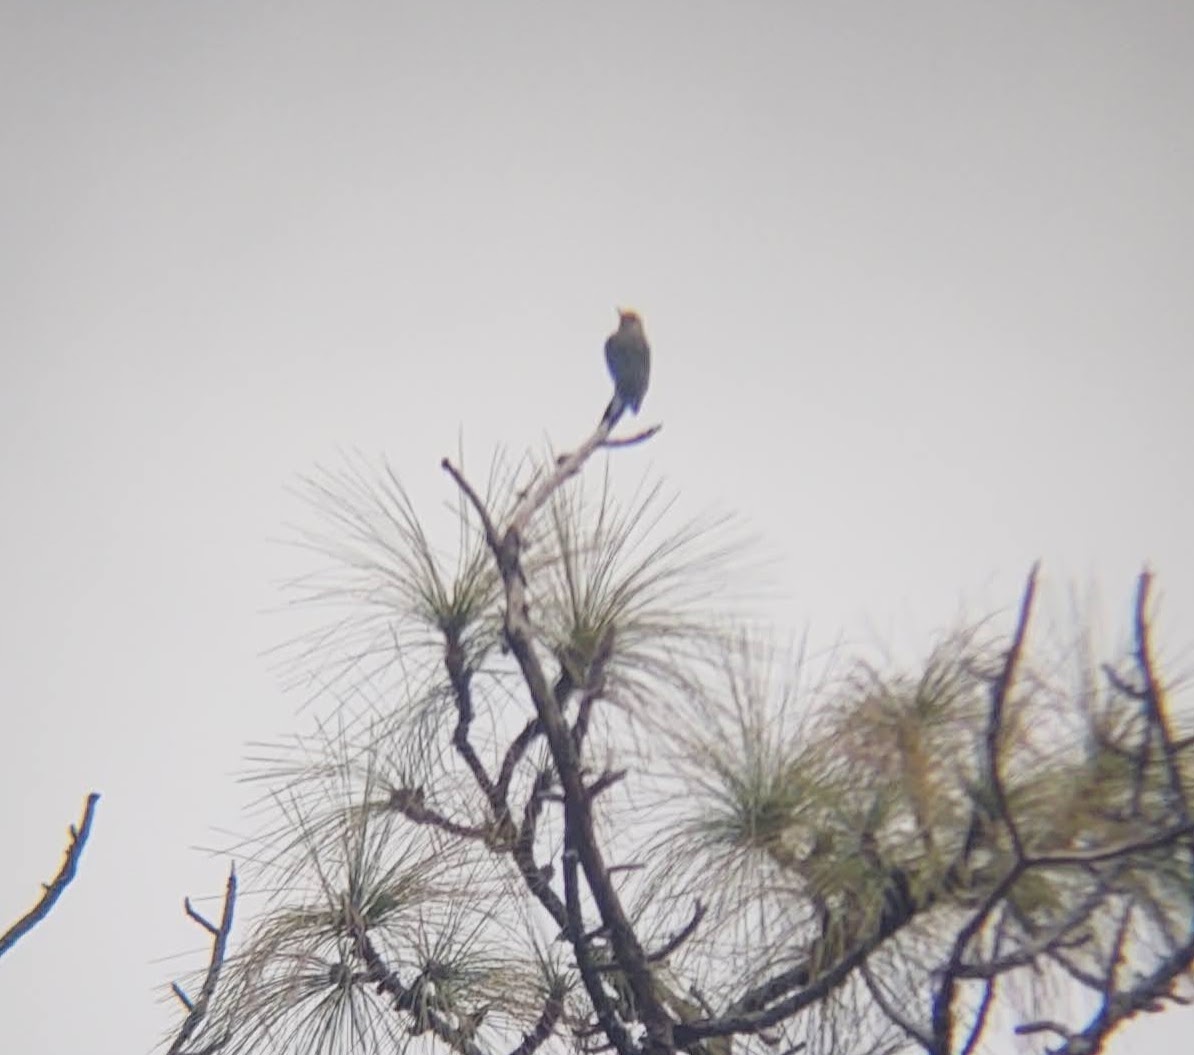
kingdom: Animalia
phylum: Chordata
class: Aves
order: Piciformes
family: Picidae
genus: Melanerpes
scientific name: Melanerpes carolinus
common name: Red-bellied woodpecker
